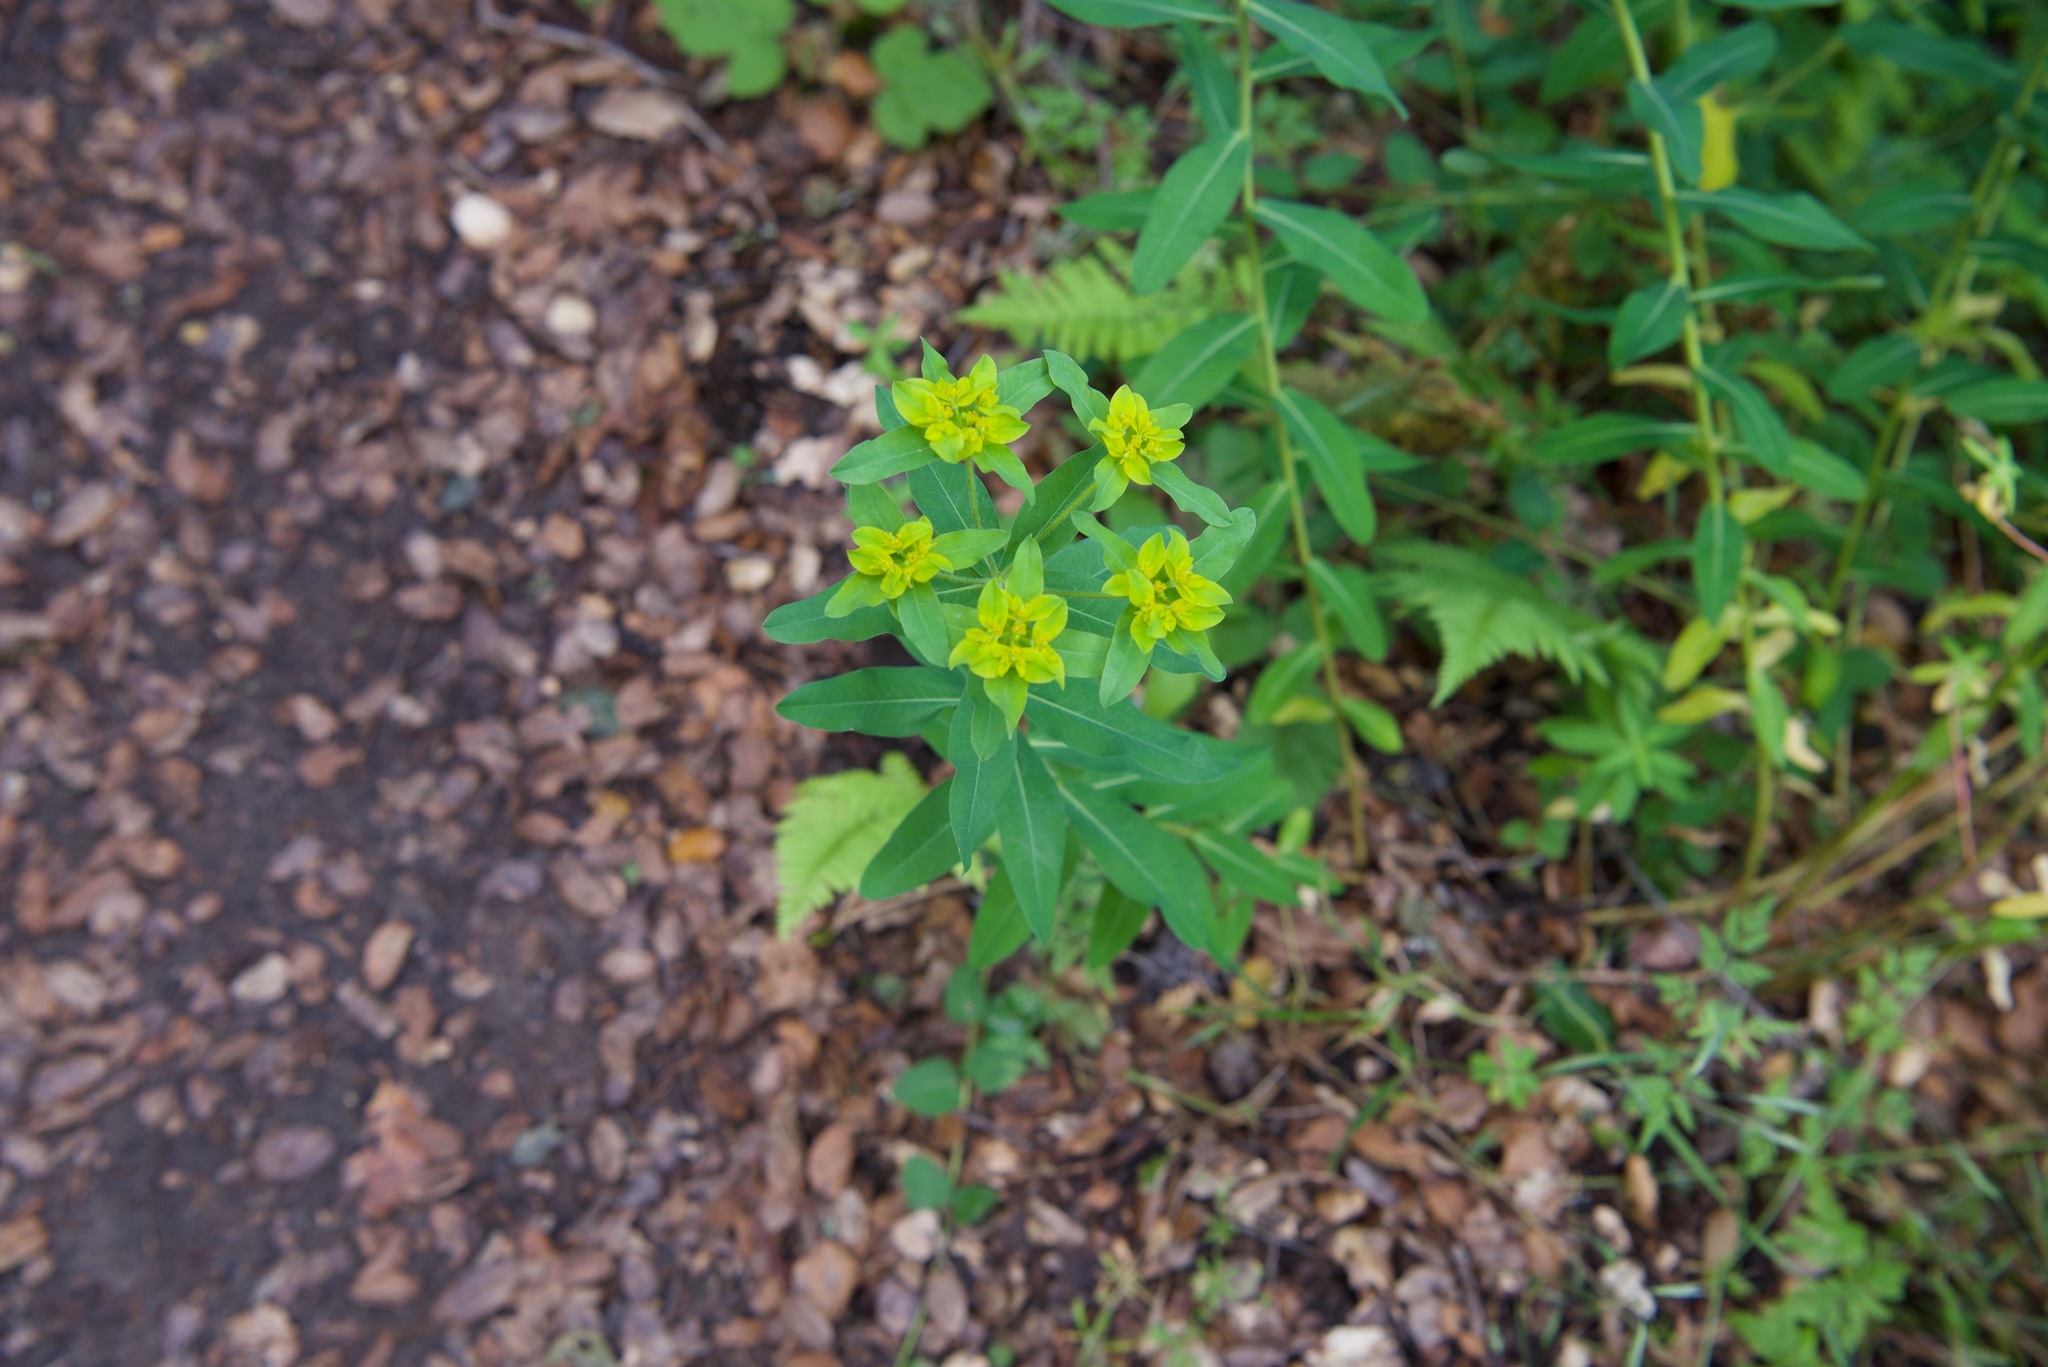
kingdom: Plantae
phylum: Tracheophyta
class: Magnoliopsida
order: Malpighiales
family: Euphorbiaceae
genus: Euphorbia
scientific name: Euphorbia oblongata
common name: Balkan spurge
